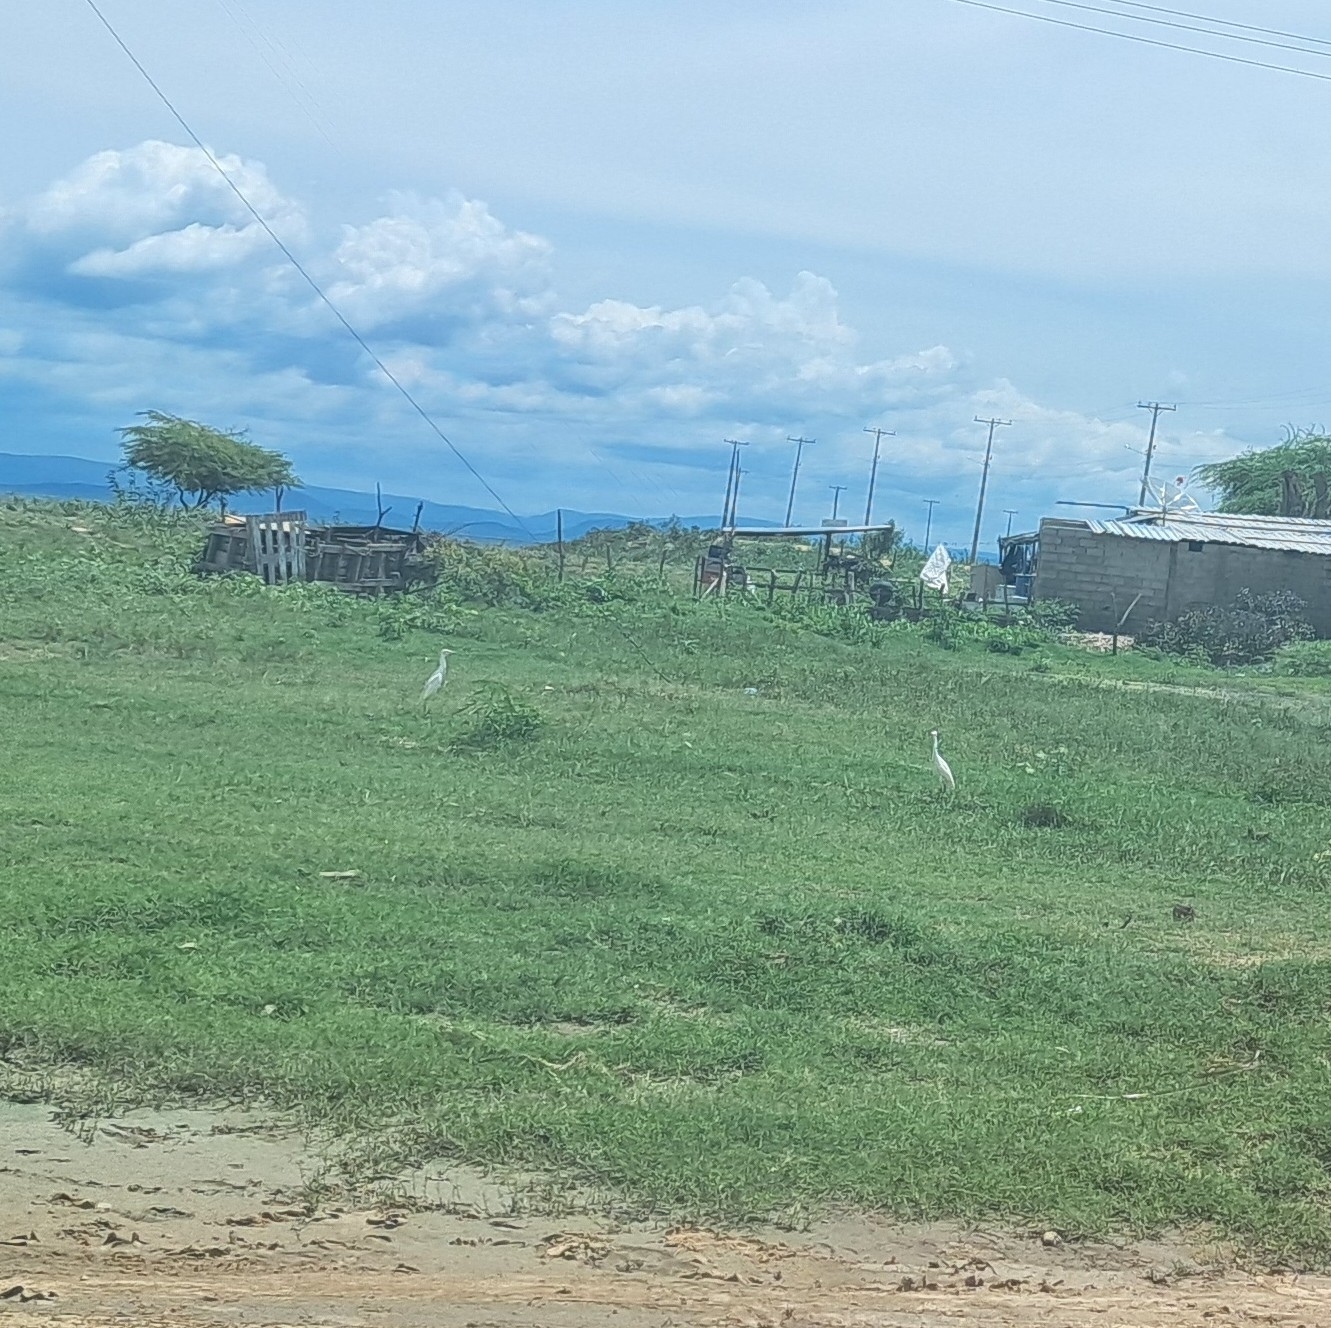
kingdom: Animalia
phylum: Chordata
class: Aves
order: Pelecaniformes
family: Ardeidae
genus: Bubulcus
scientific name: Bubulcus ibis
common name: Cattle egret
